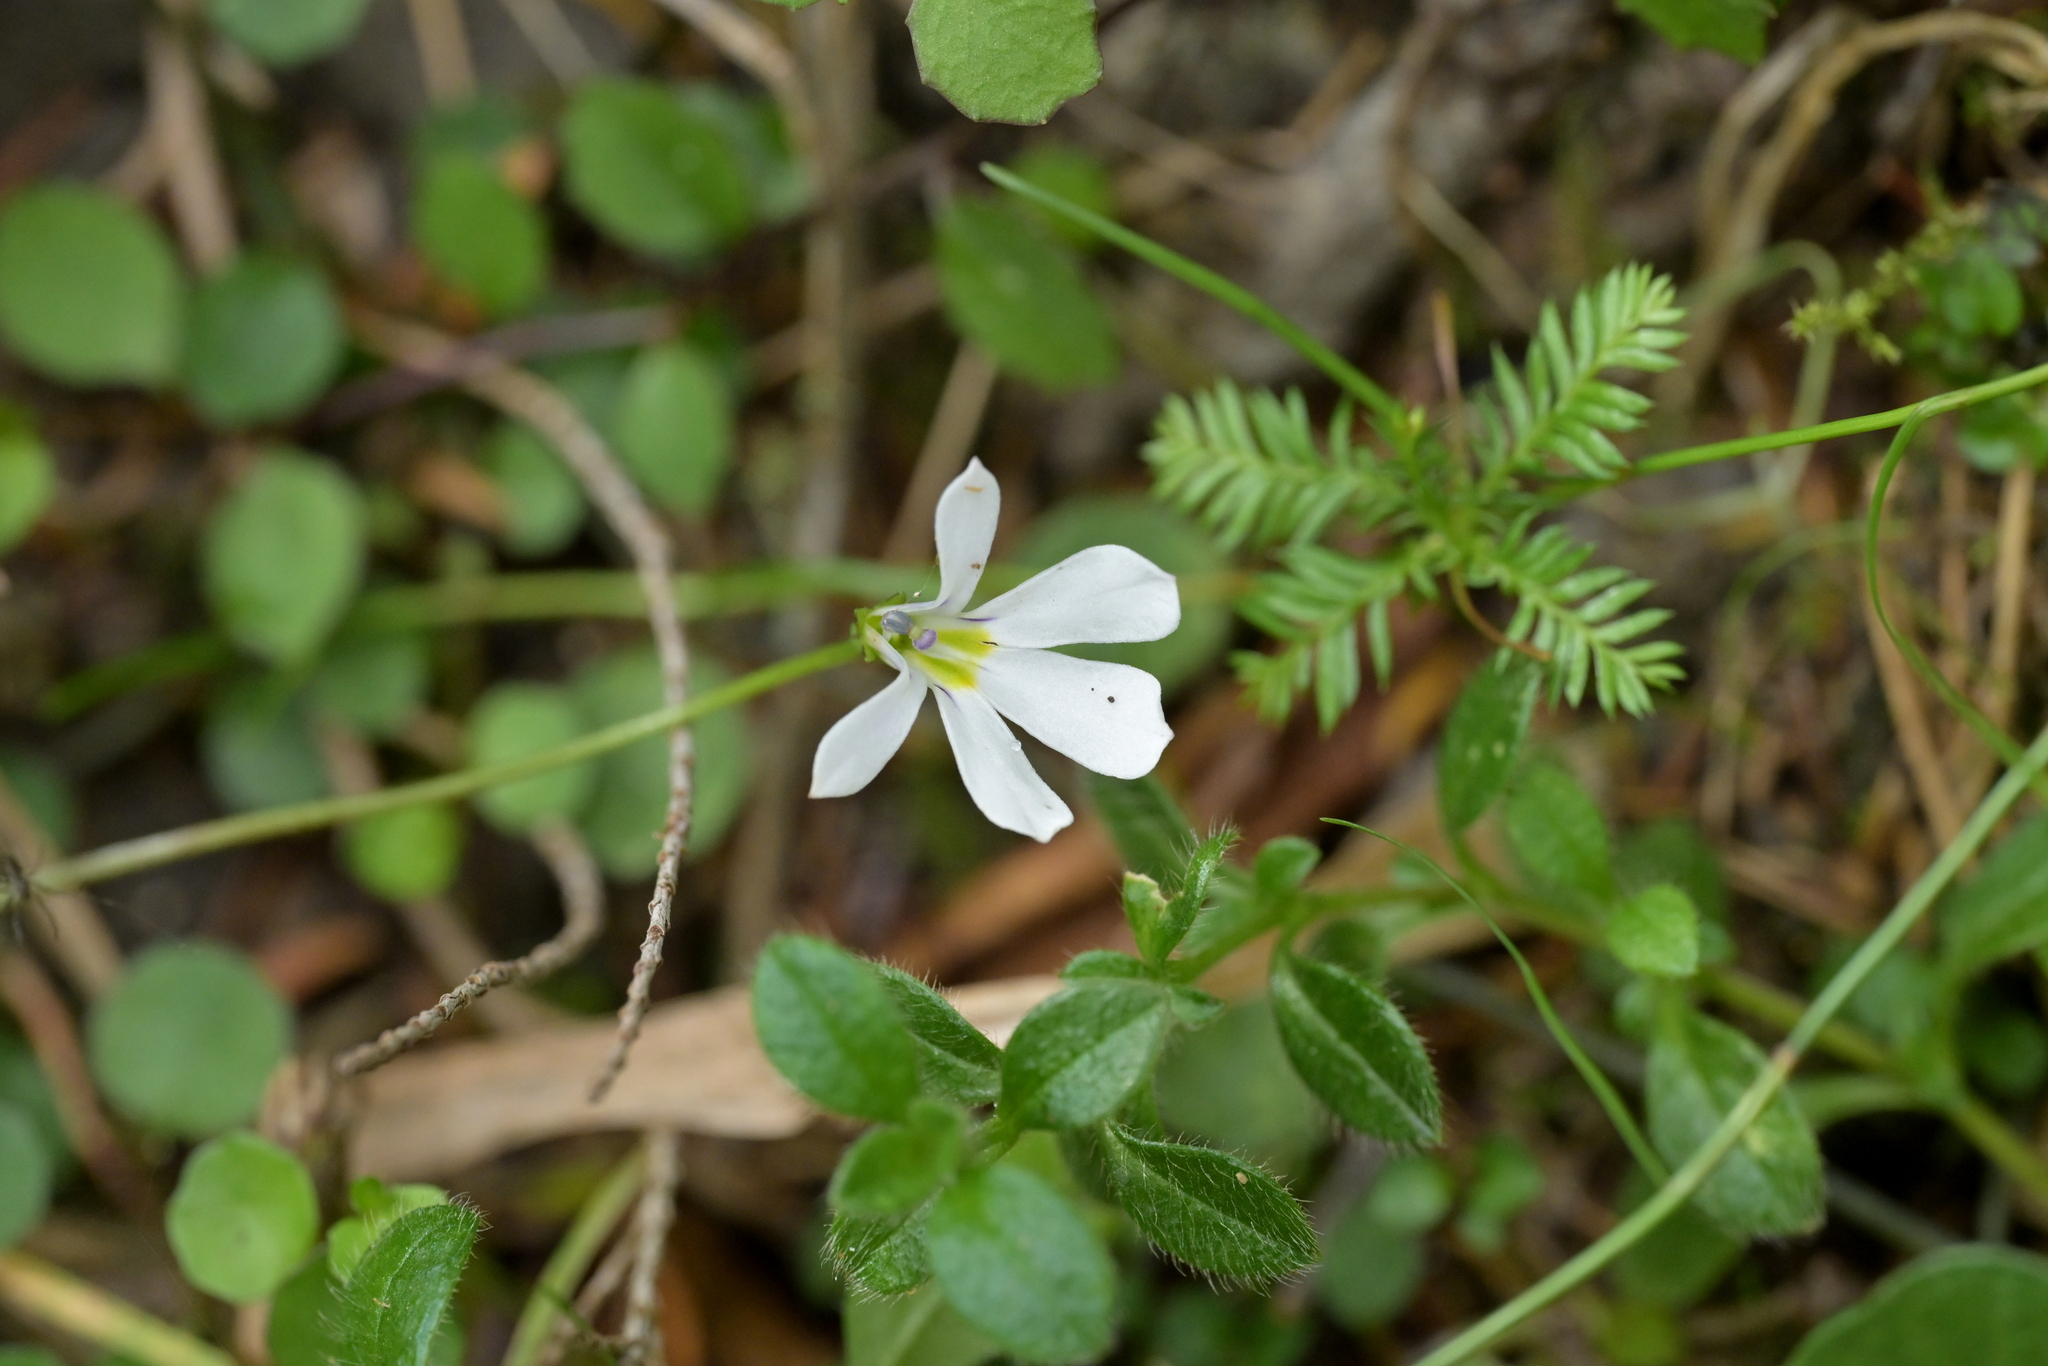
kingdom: Plantae
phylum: Tracheophyta
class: Magnoliopsida
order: Asterales
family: Campanulaceae
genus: Lobelia
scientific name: Lobelia angulata
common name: Lawn lobelia
